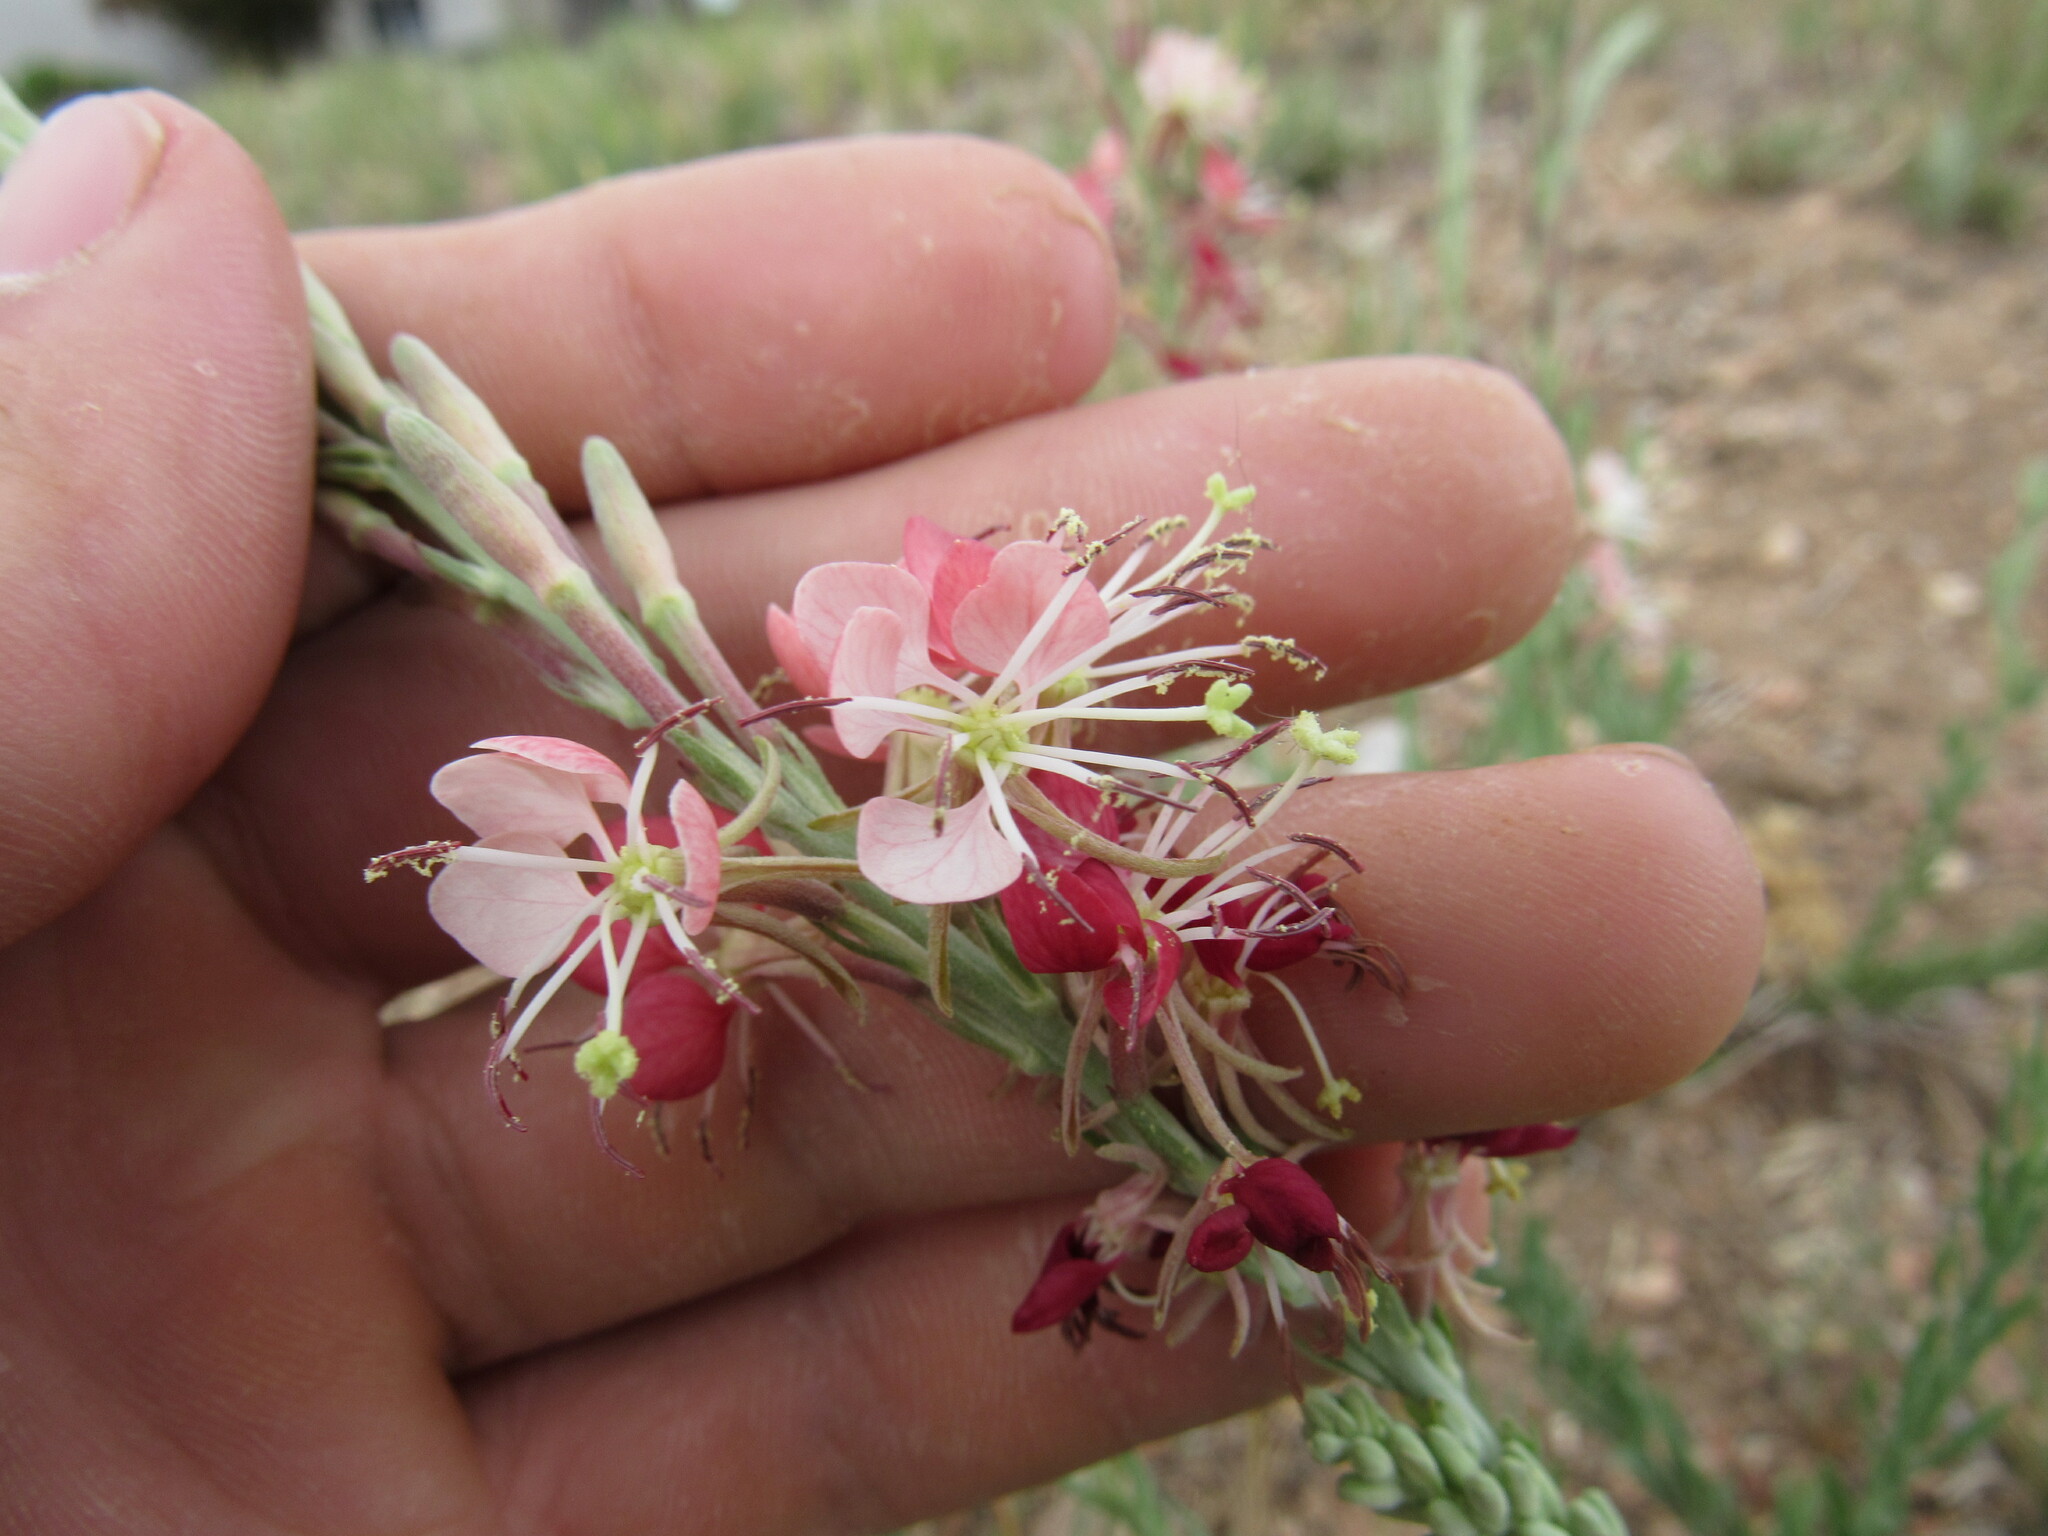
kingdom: Plantae
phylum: Tracheophyta
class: Magnoliopsida
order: Myrtales
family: Onagraceae
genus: Oenothera
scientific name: Oenothera suffrutescens
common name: Scarlet beeblossom
